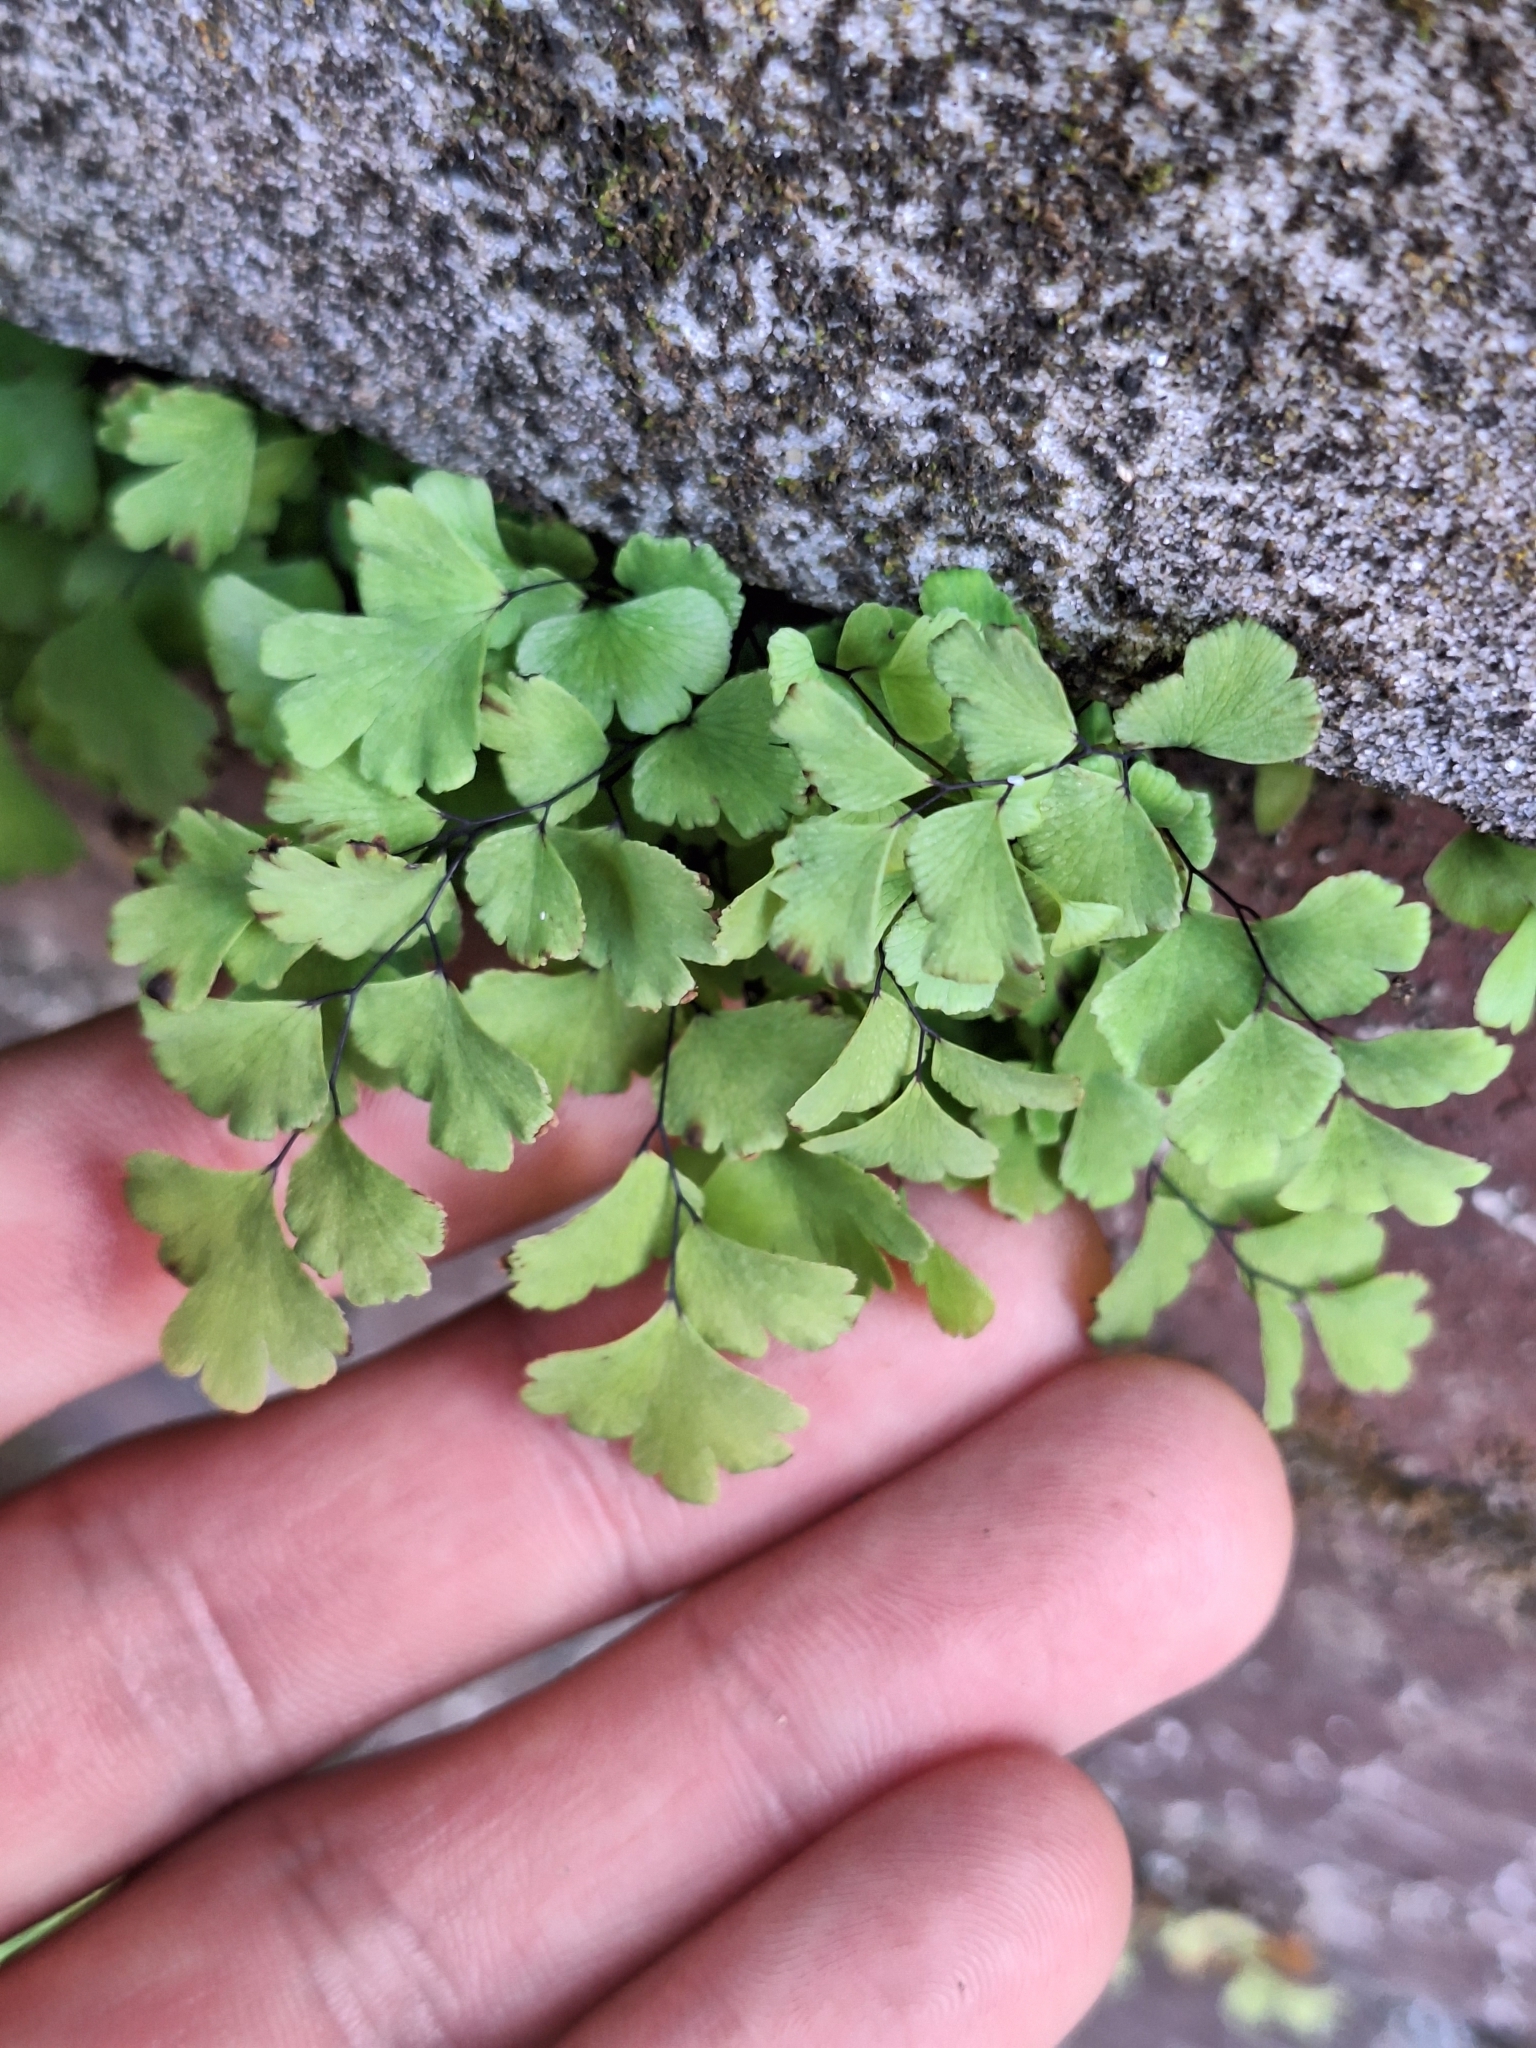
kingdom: Plantae
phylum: Tracheophyta
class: Polypodiopsida
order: Polypodiales
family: Pteridaceae
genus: Adiantum
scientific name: Adiantum capillus-veneris
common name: Maidenhair fern
